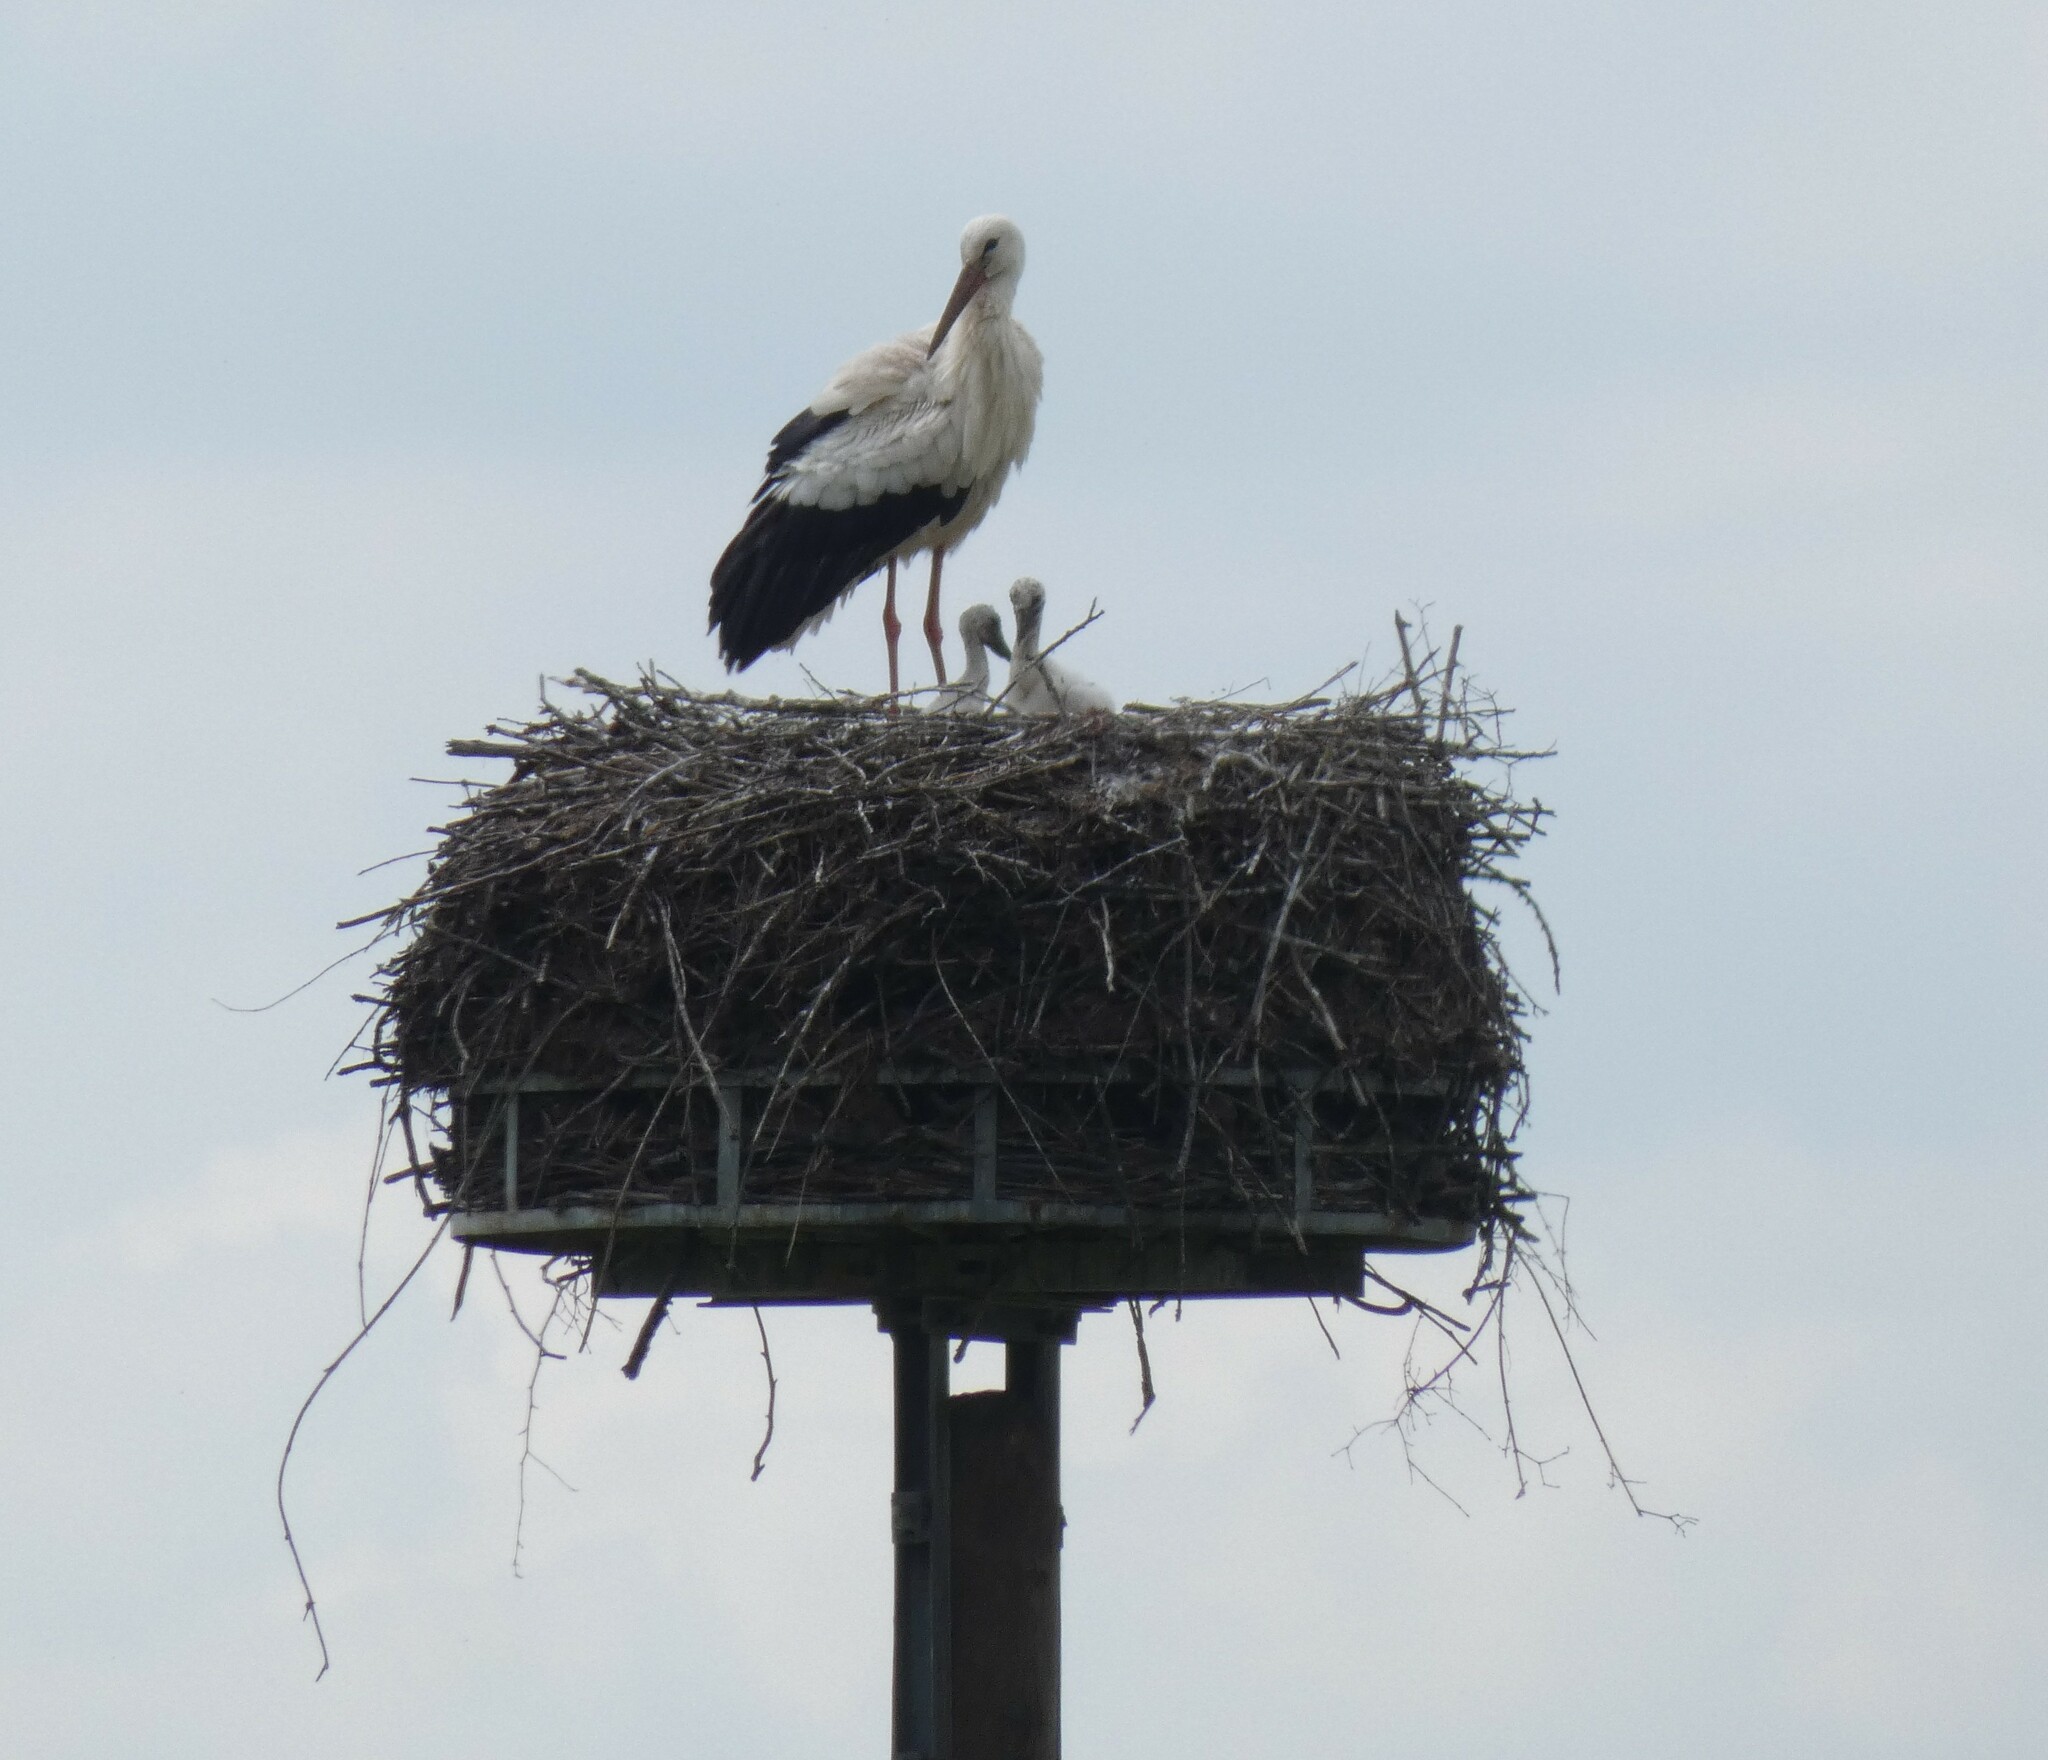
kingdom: Animalia
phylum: Chordata
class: Aves
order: Ciconiiformes
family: Ciconiidae
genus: Ciconia
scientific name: Ciconia ciconia
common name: White stork
